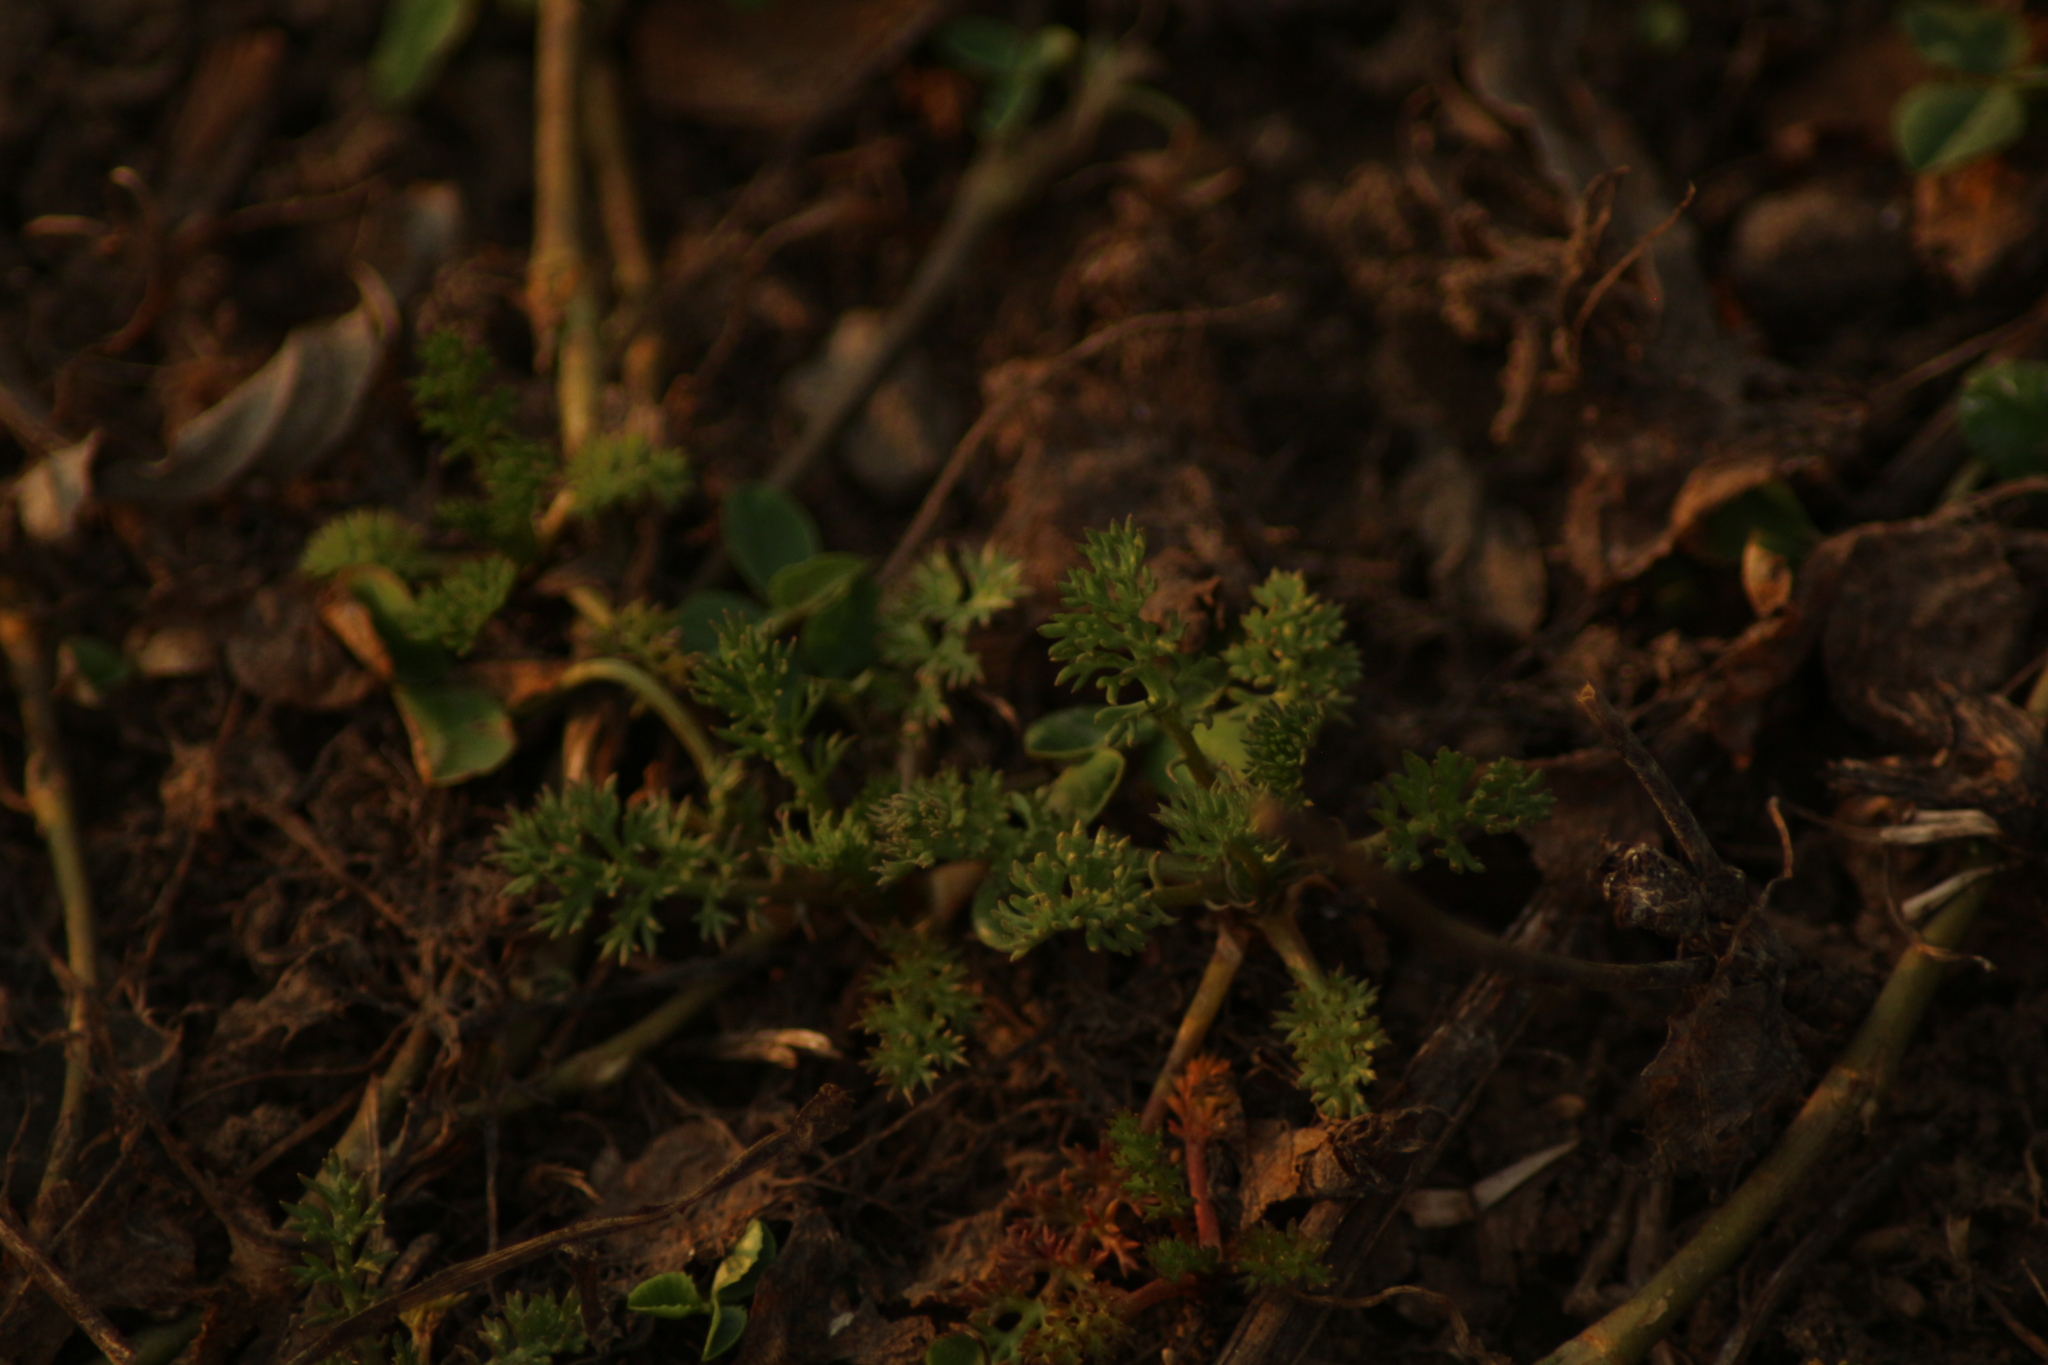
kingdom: Plantae
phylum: Tracheophyta
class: Magnoliopsida
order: Asterales
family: Asteraceae
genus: Tripleurospermum
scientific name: Tripleurospermum inodorum
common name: Scentless mayweed
